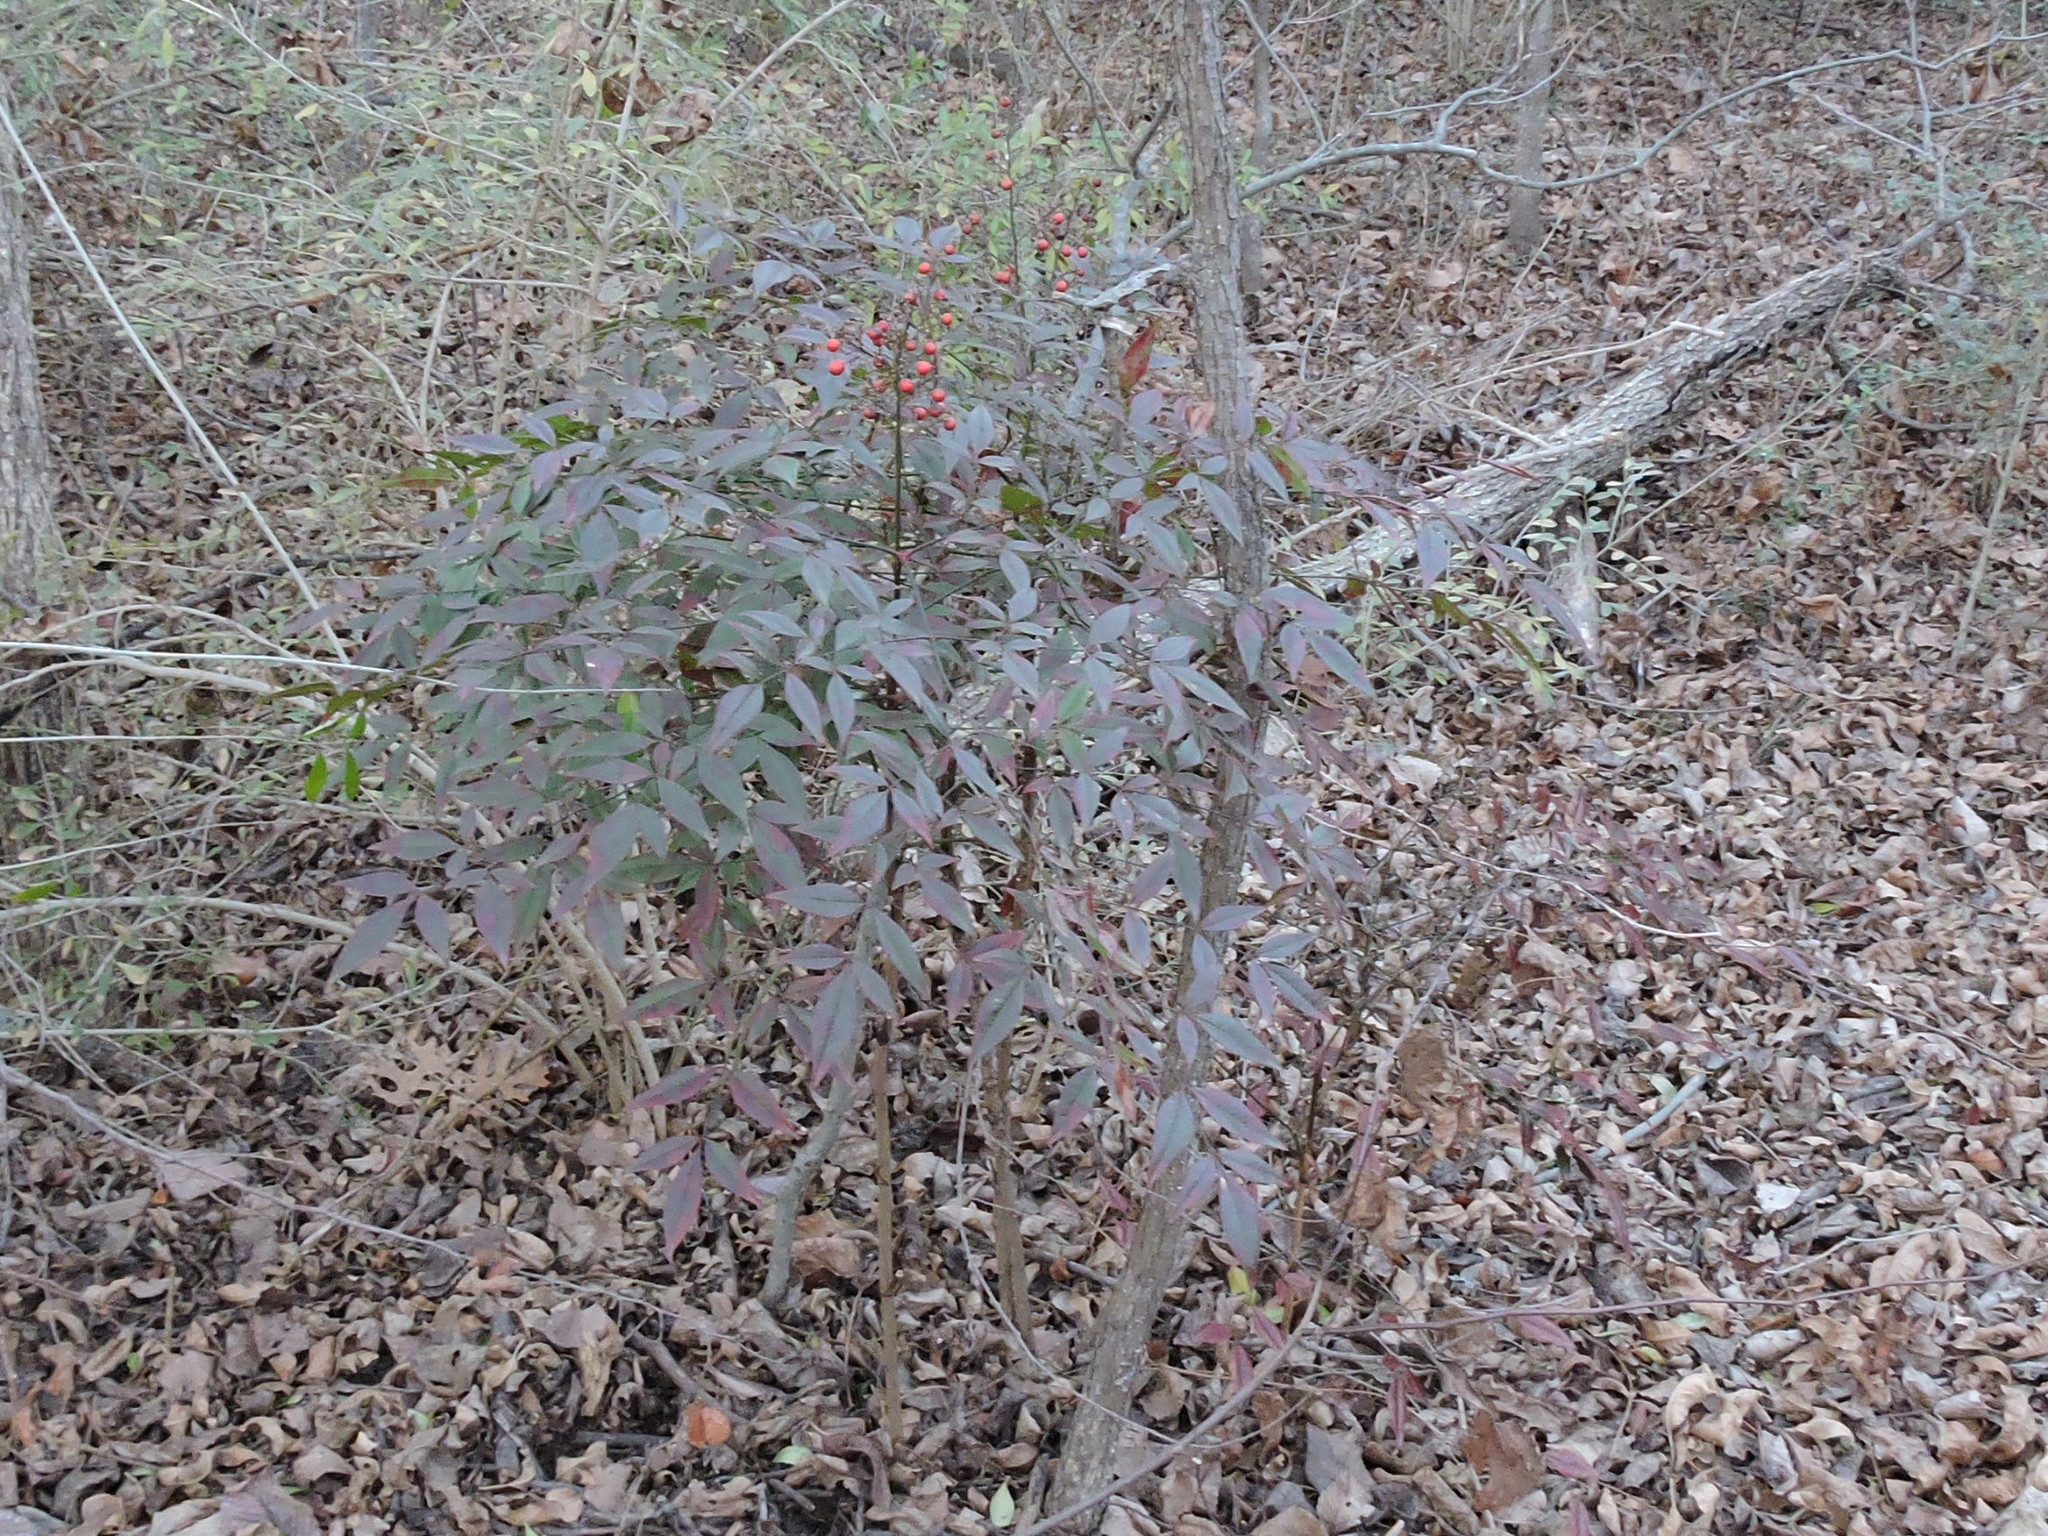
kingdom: Plantae
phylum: Tracheophyta
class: Magnoliopsida
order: Ranunculales
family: Berberidaceae
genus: Nandina
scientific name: Nandina domestica
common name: Sacred bamboo
